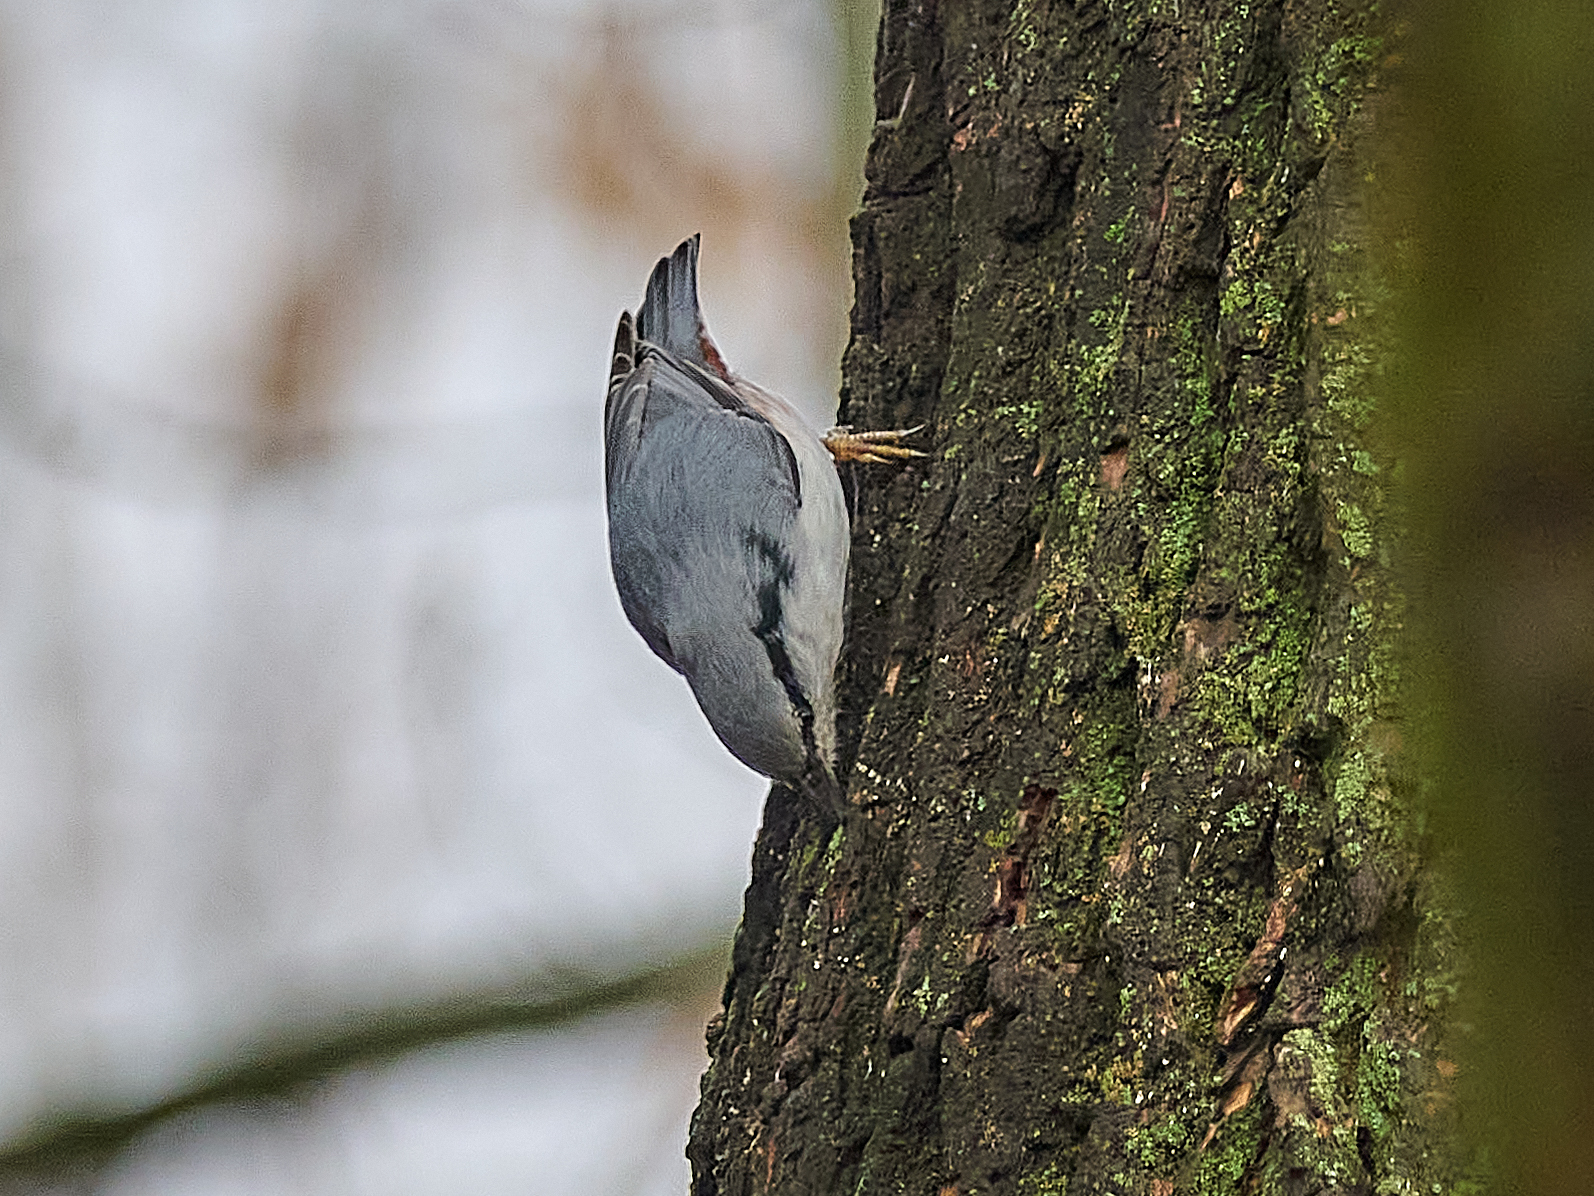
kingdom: Animalia
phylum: Chordata
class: Aves
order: Passeriformes
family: Sittidae
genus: Sitta
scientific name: Sitta europaea
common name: Eurasian nuthatch
